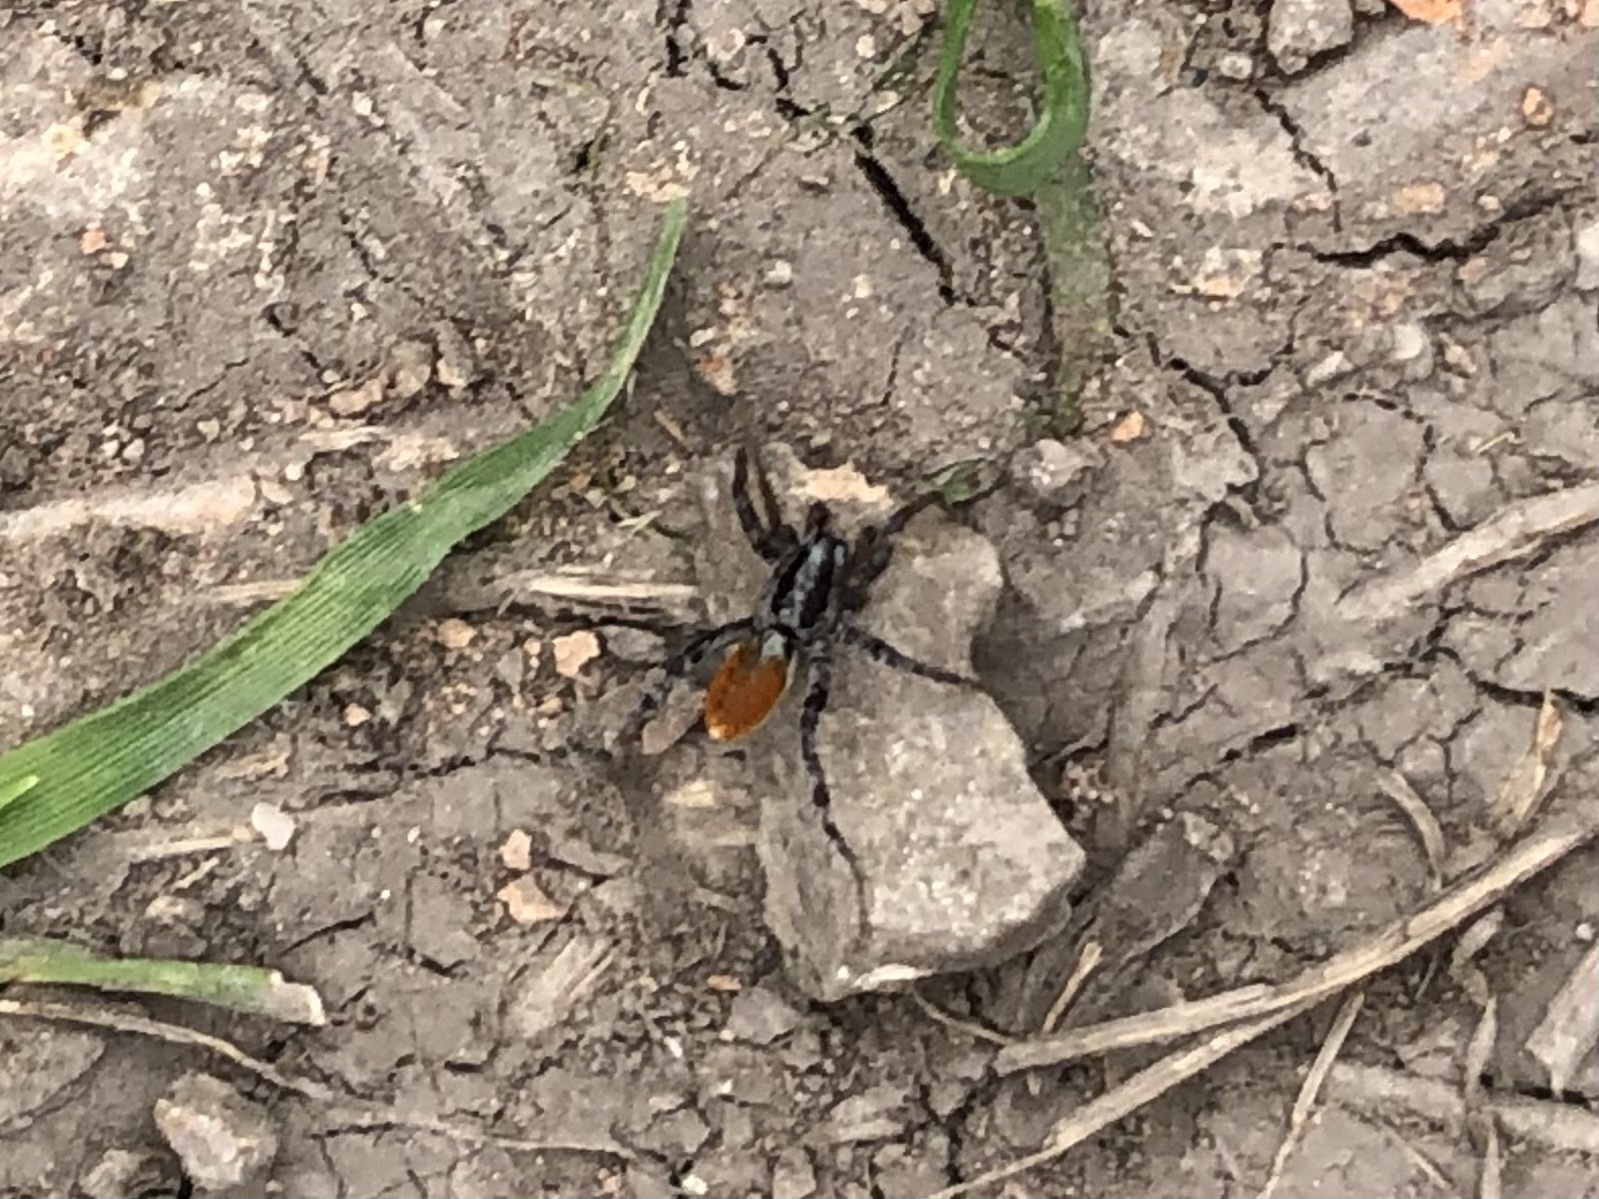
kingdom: Animalia
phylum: Arthropoda
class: Arachnida
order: Araneae
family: Corinnidae
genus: Castianeira
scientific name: Castianeira occidens
